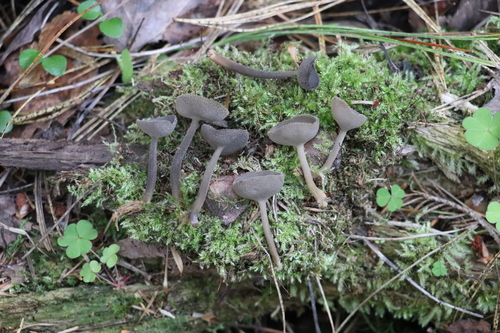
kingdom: Fungi
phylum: Ascomycota
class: Pezizomycetes
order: Pezizales
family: Helvellaceae
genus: Helvella
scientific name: Helvella macropus
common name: Felt saddle
